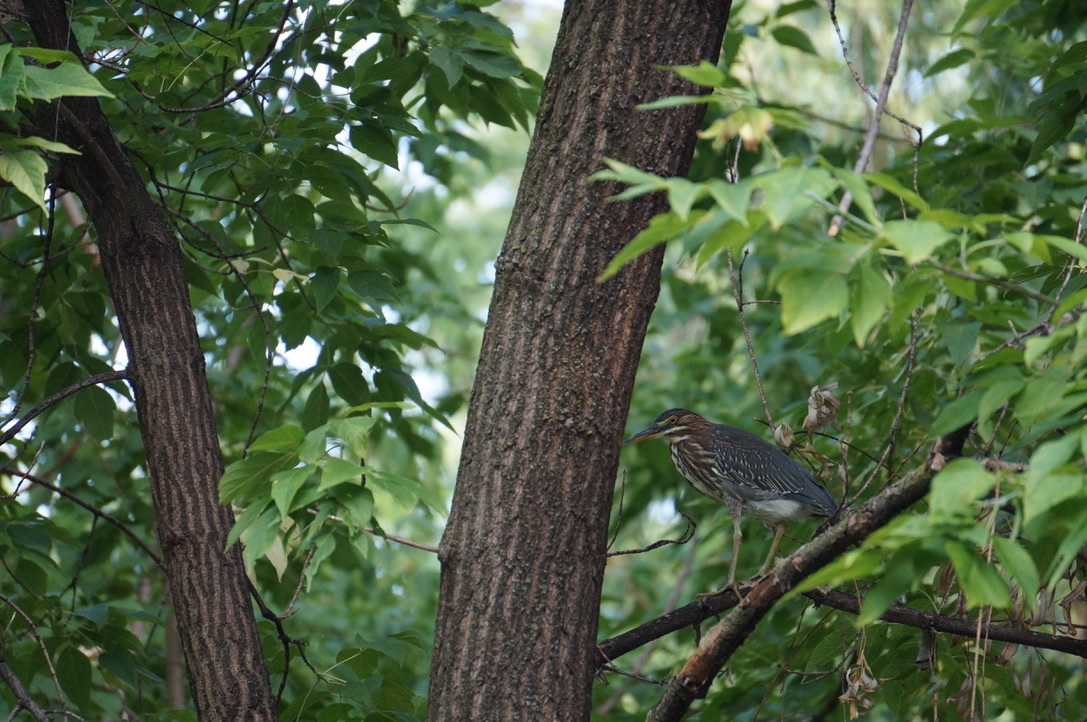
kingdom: Animalia
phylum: Chordata
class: Aves
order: Pelecaniformes
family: Ardeidae
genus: Butorides
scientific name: Butorides virescens
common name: Green heron
